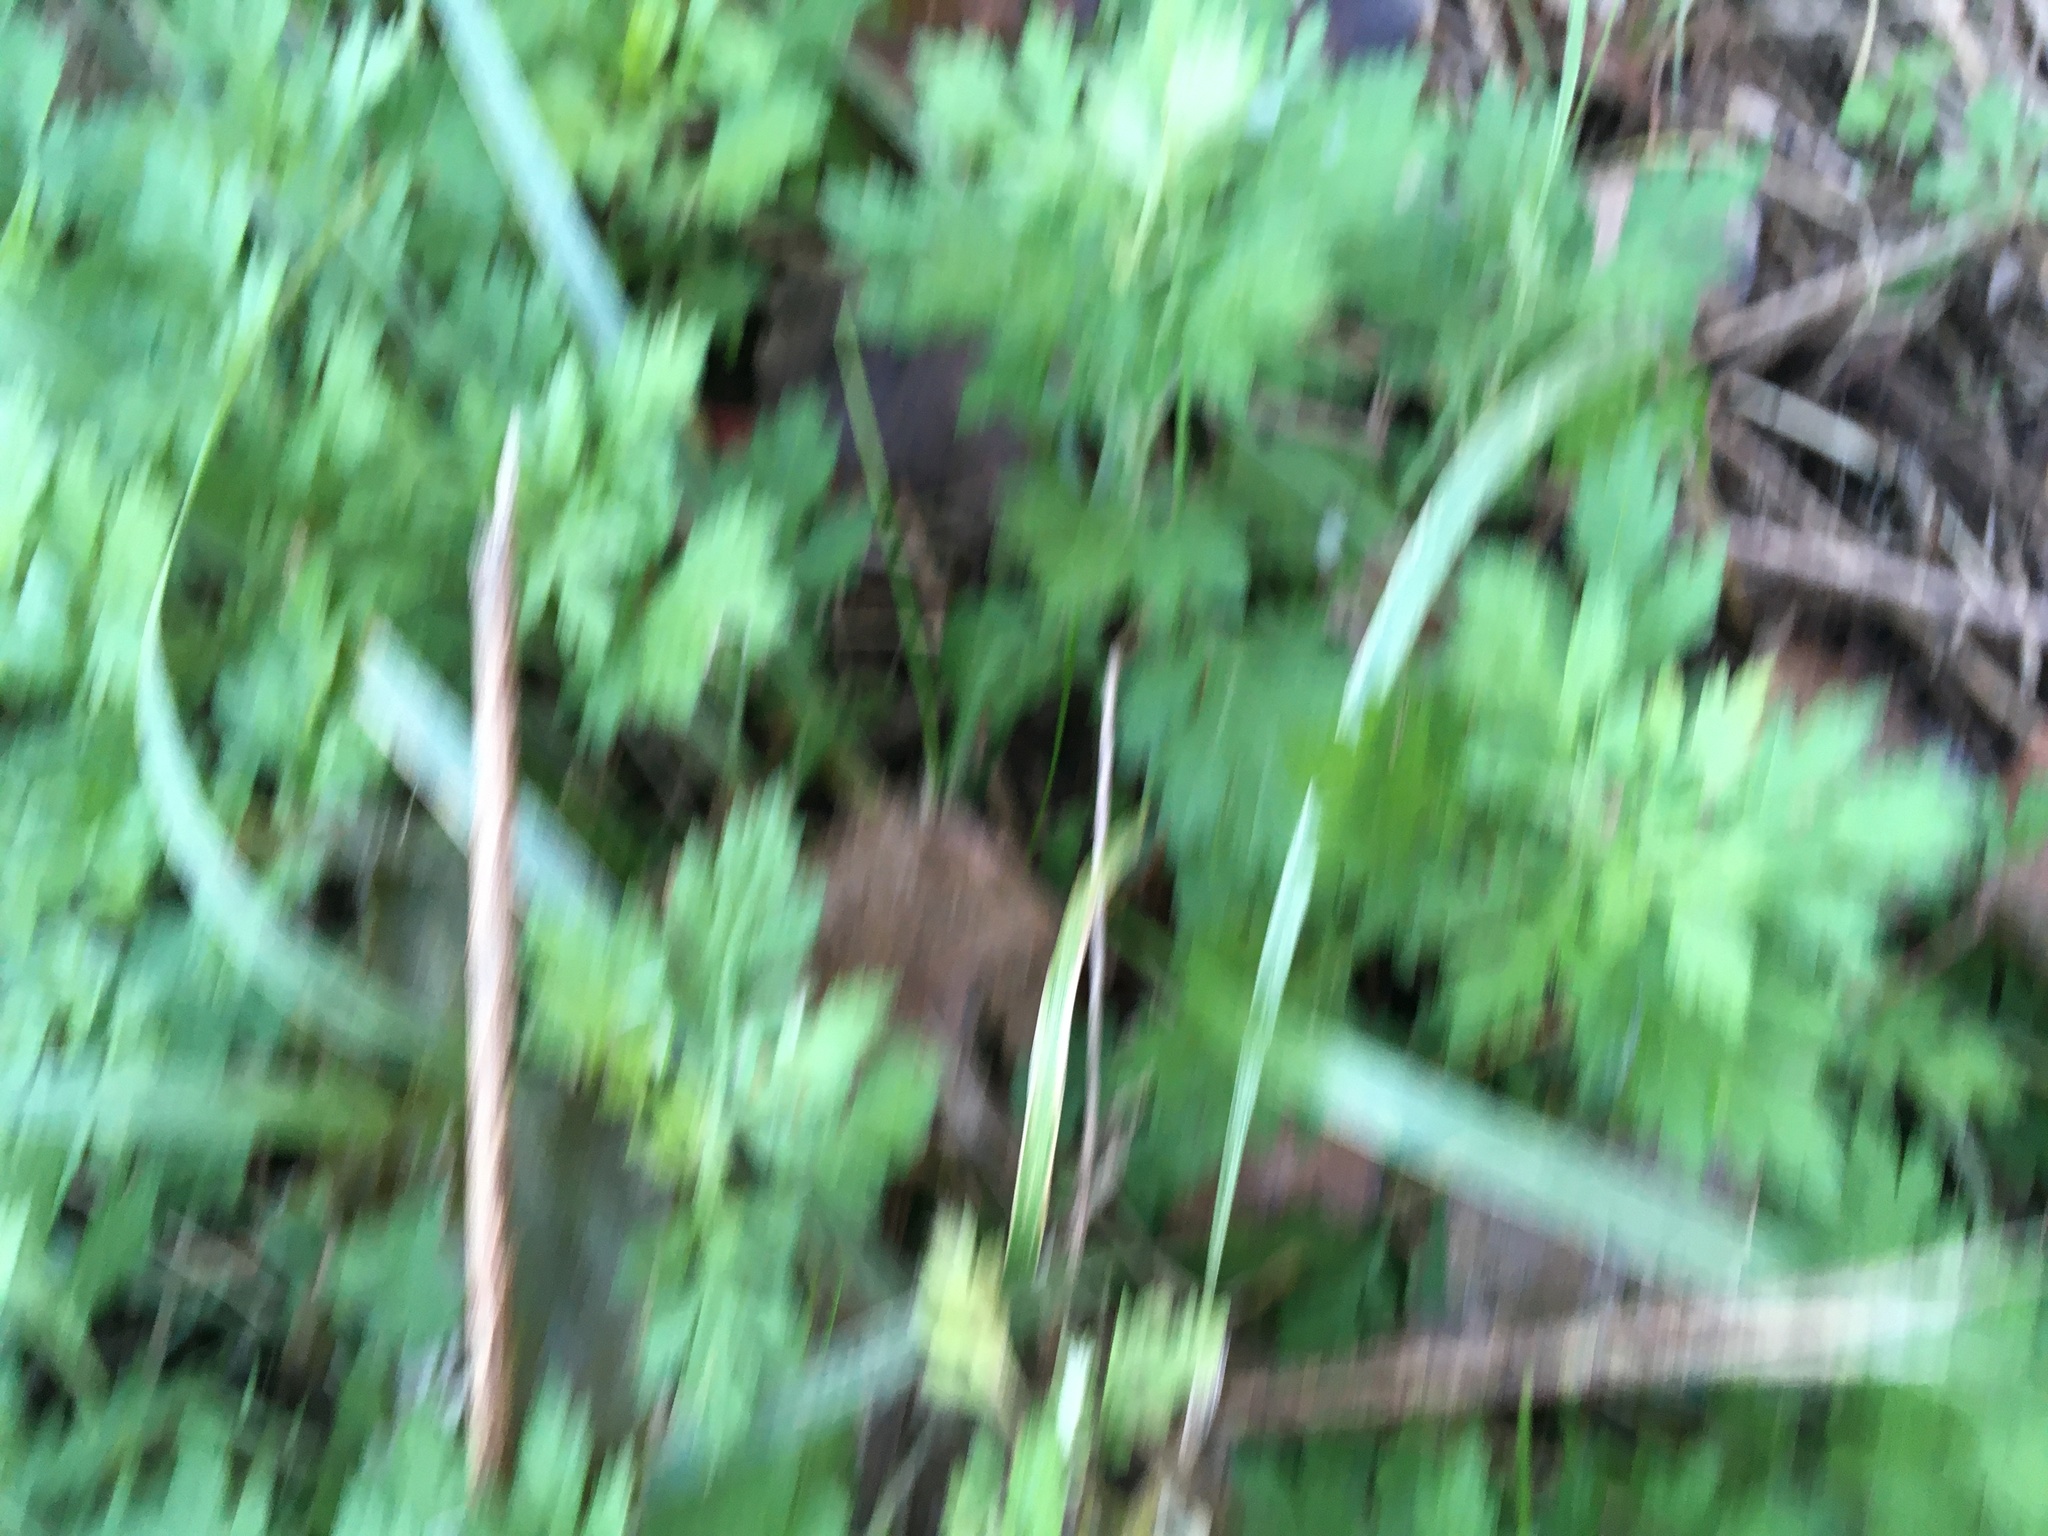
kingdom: Plantae
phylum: Tracheophyta
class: Magnoliopsida
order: Asterales
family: Asteraceae
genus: Artemisia
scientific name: Artemisia vulgaris
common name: Mugwort
